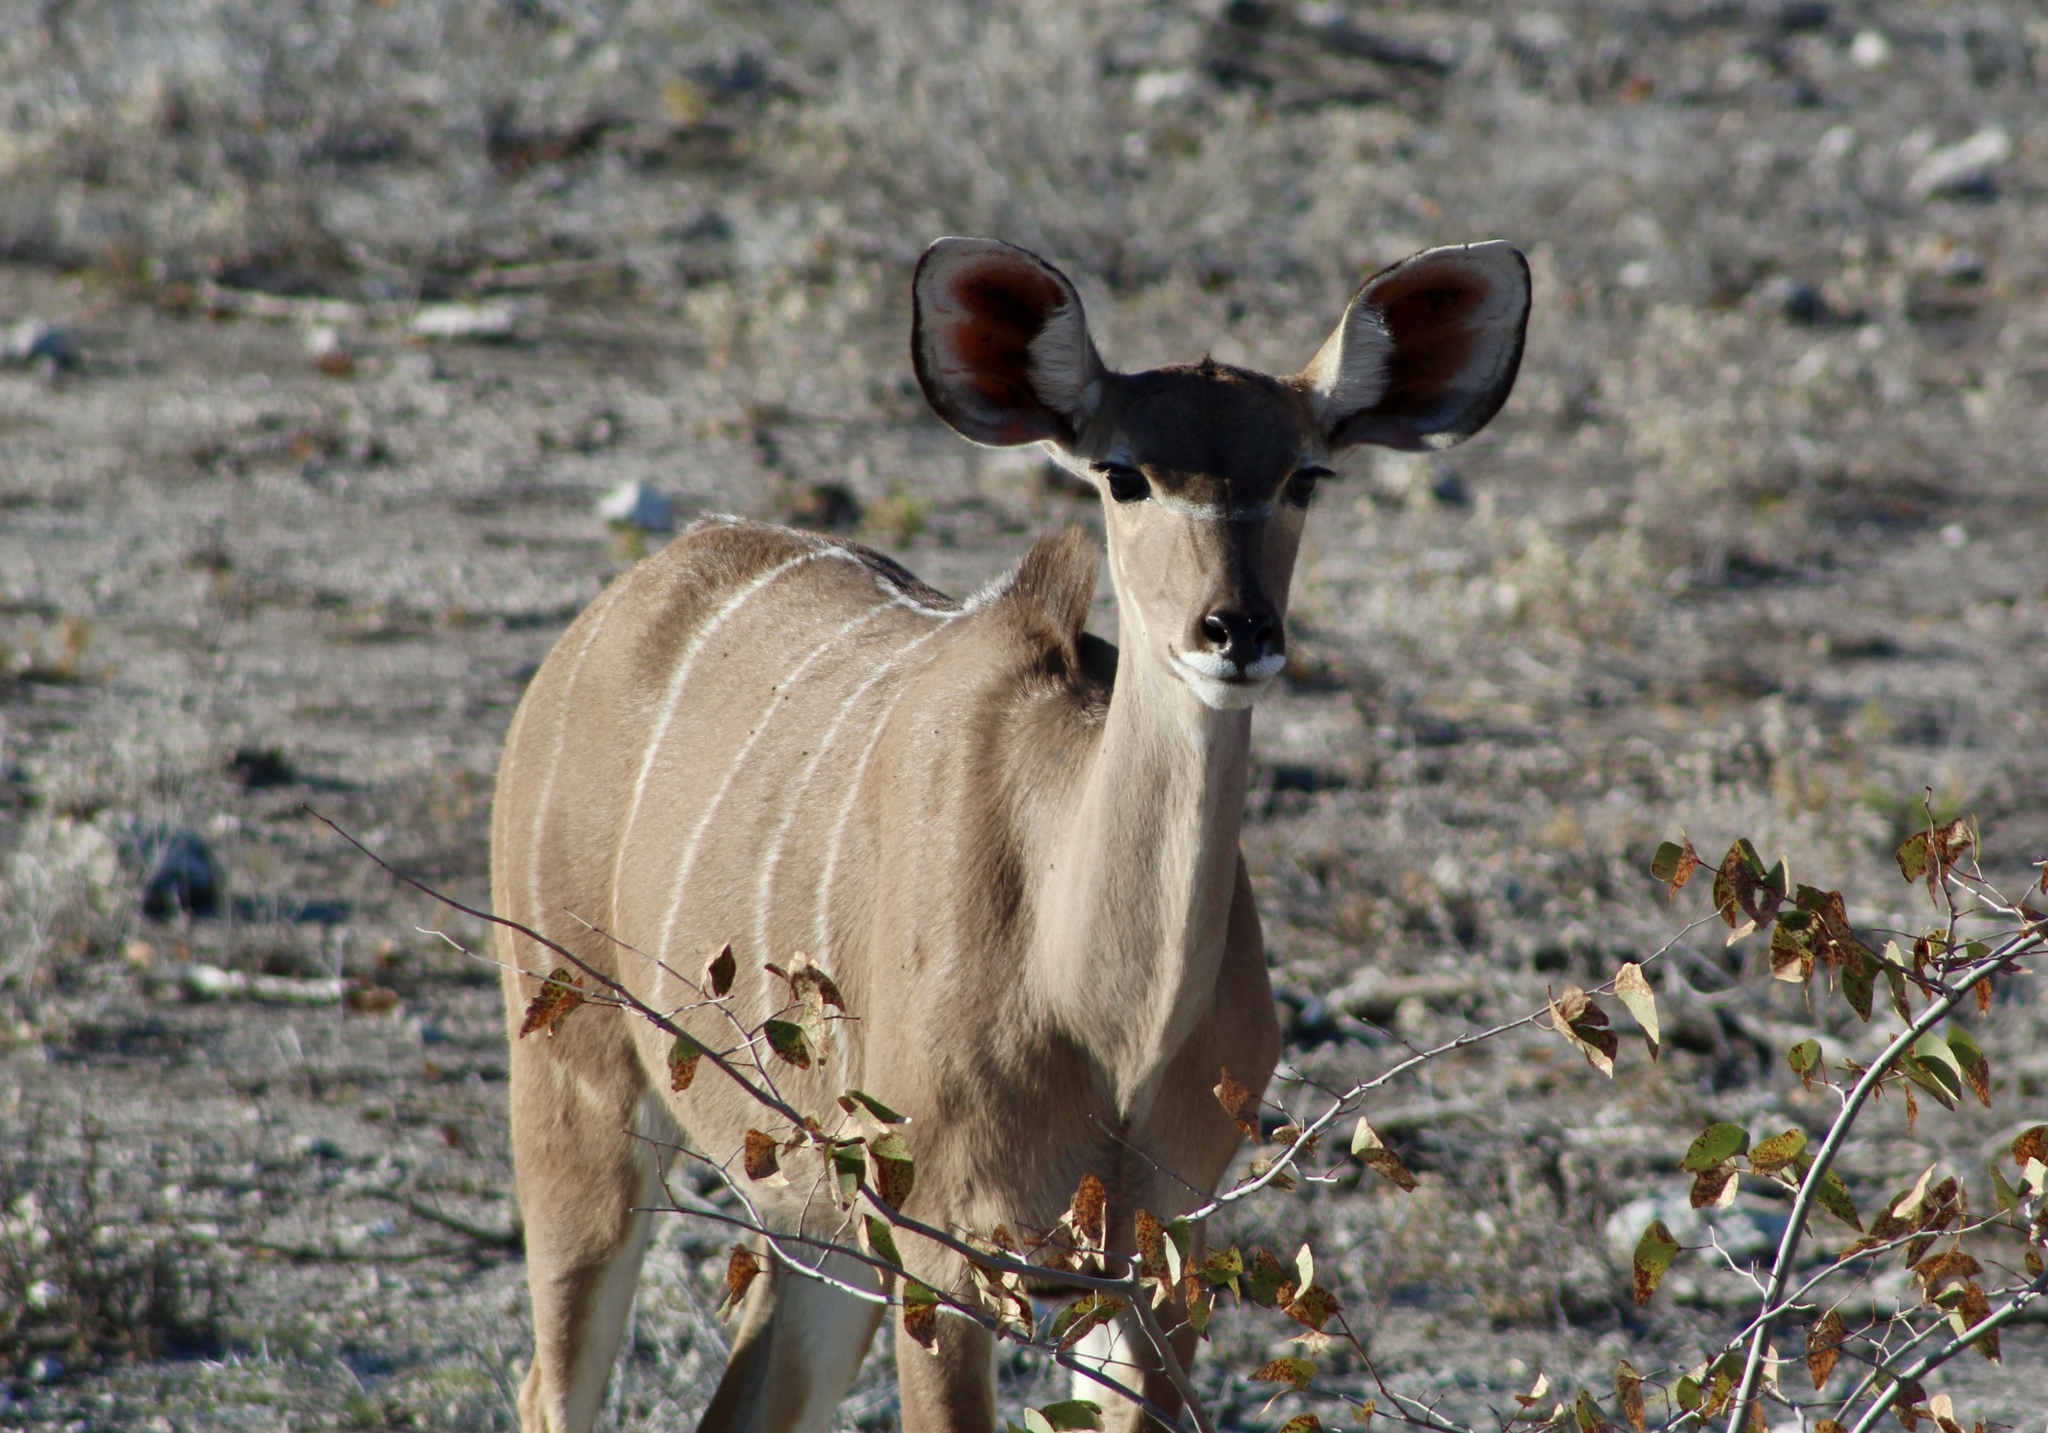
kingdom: Animalia
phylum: Chordata
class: Mammalia
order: Artiodactyla
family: Bovidae
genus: Tragelaphus
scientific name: Tragelaphus strepsiceros
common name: Greater kudu
